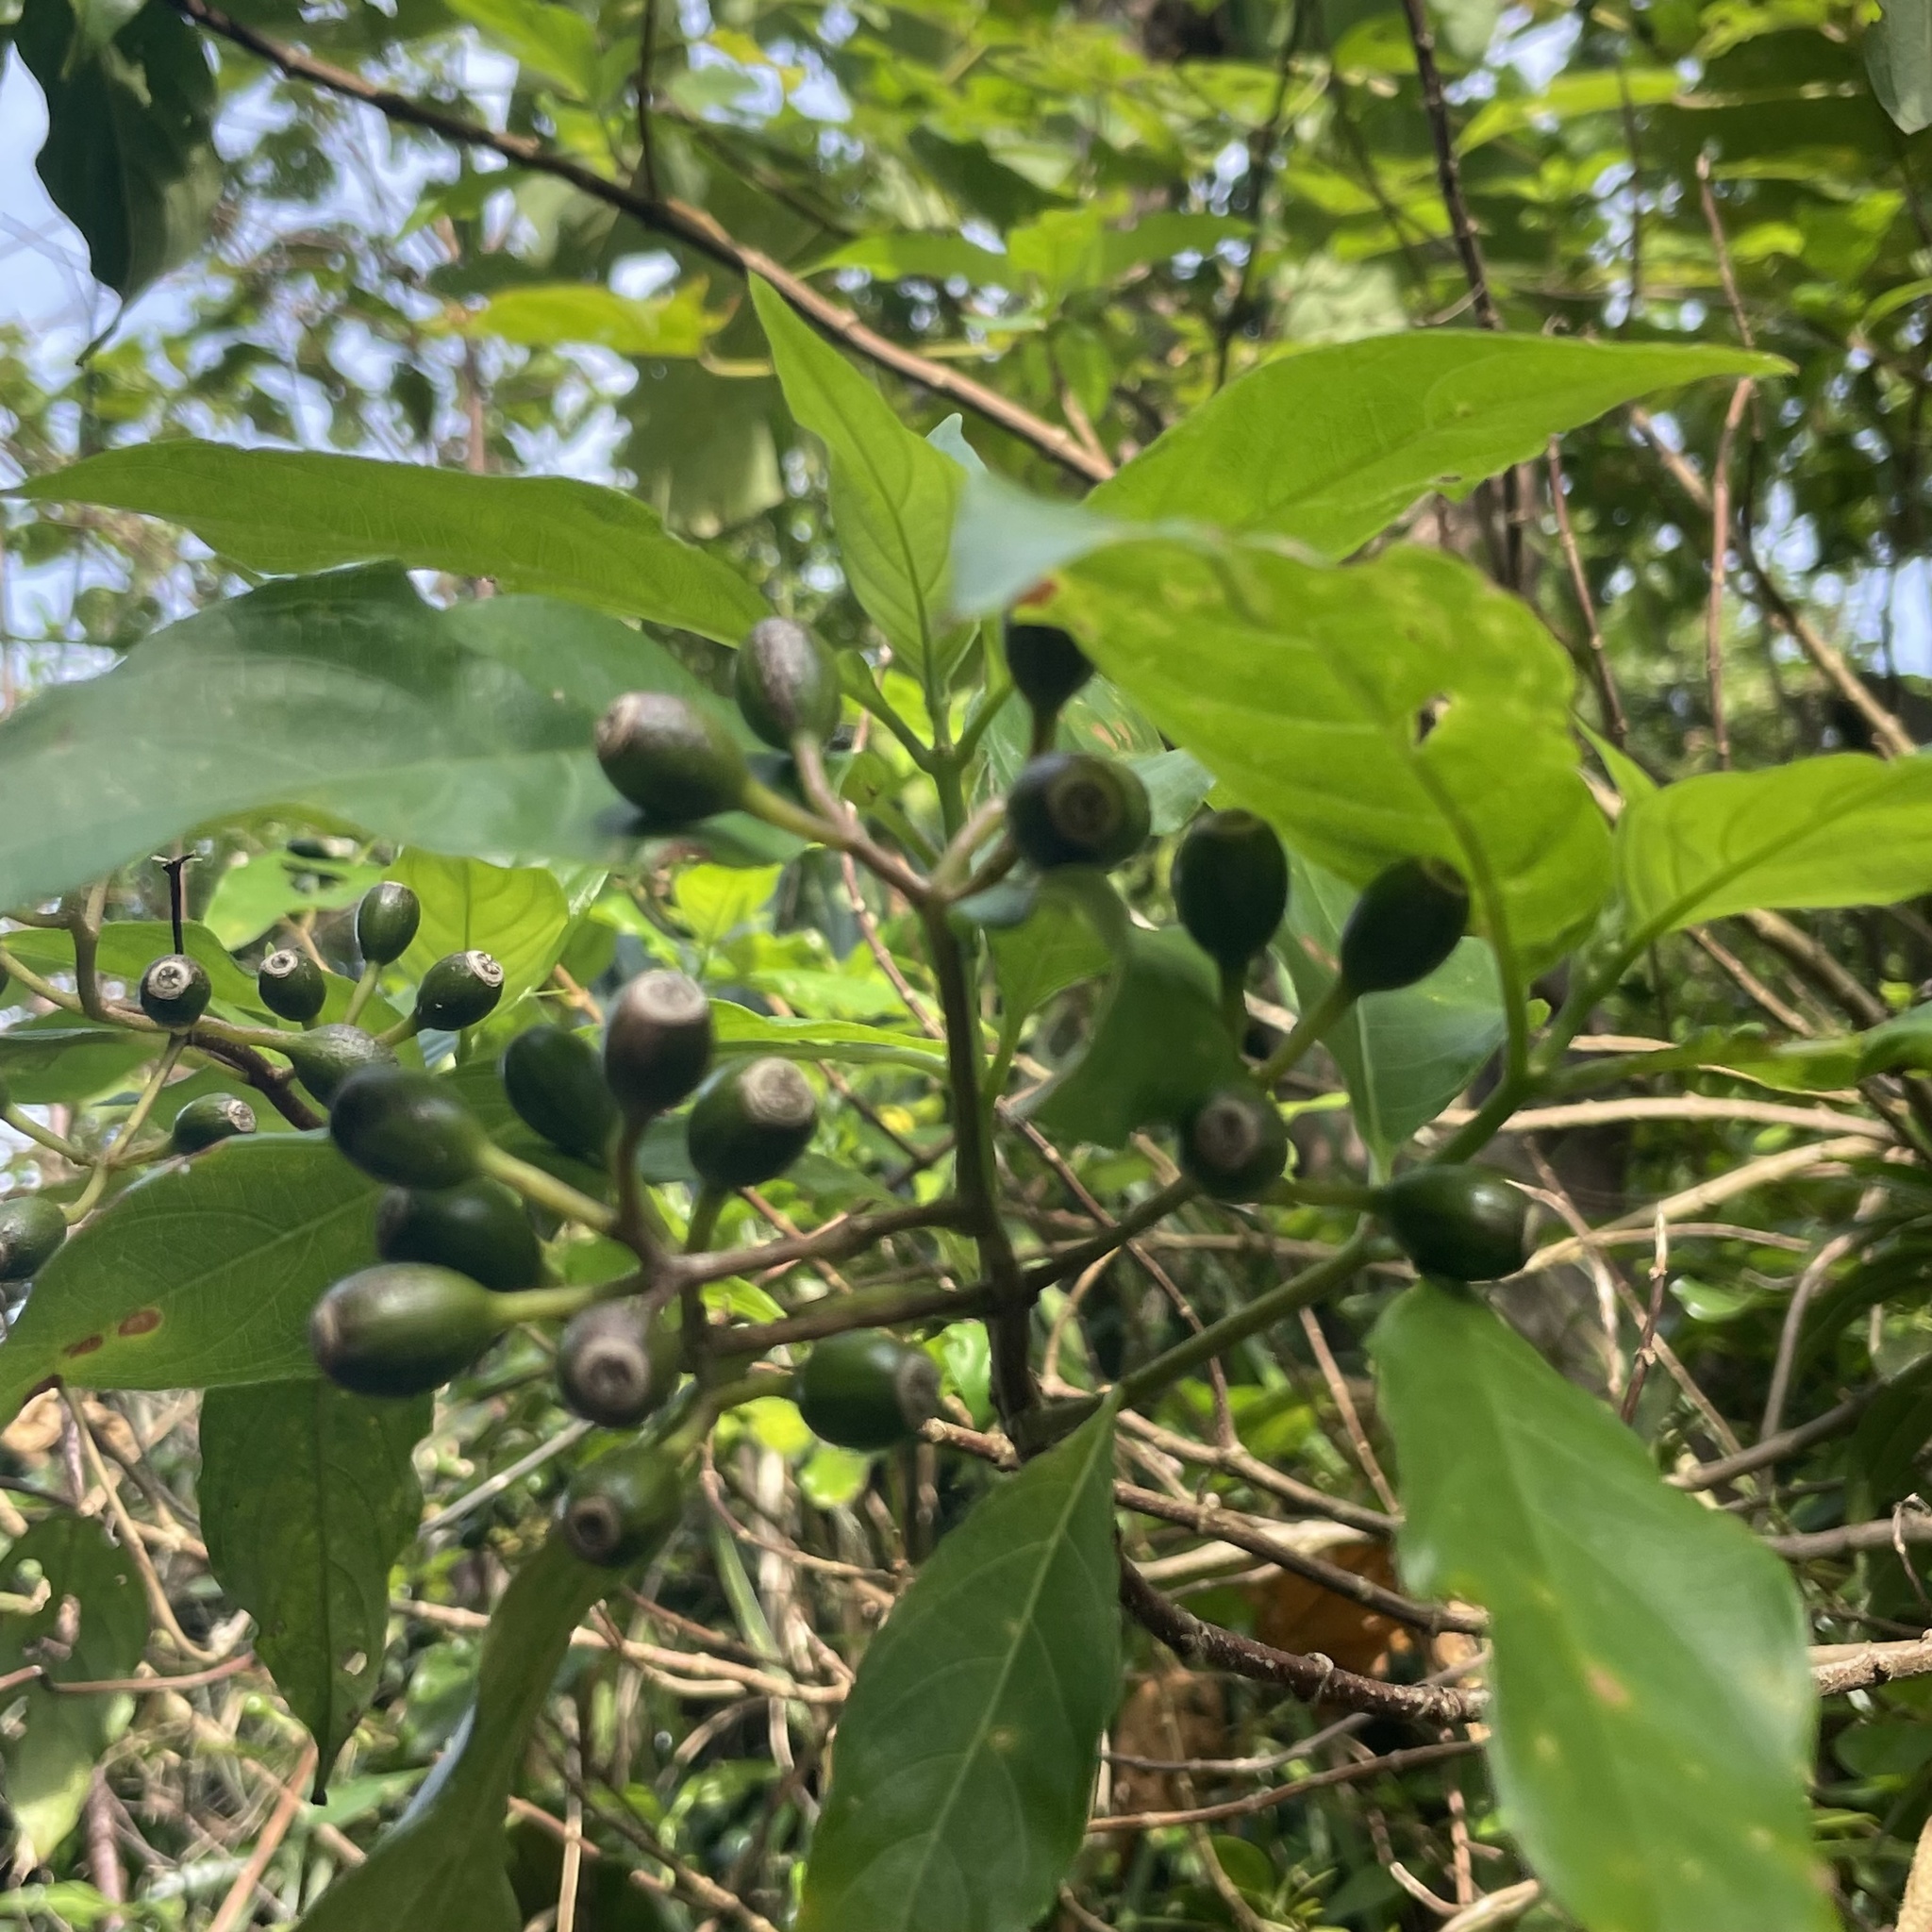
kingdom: Plantae
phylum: Tracheophyta
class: Magnoliopsida
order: Gentianales
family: Rubiaceae
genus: Mussaenda
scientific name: Mussaenda parviflora
